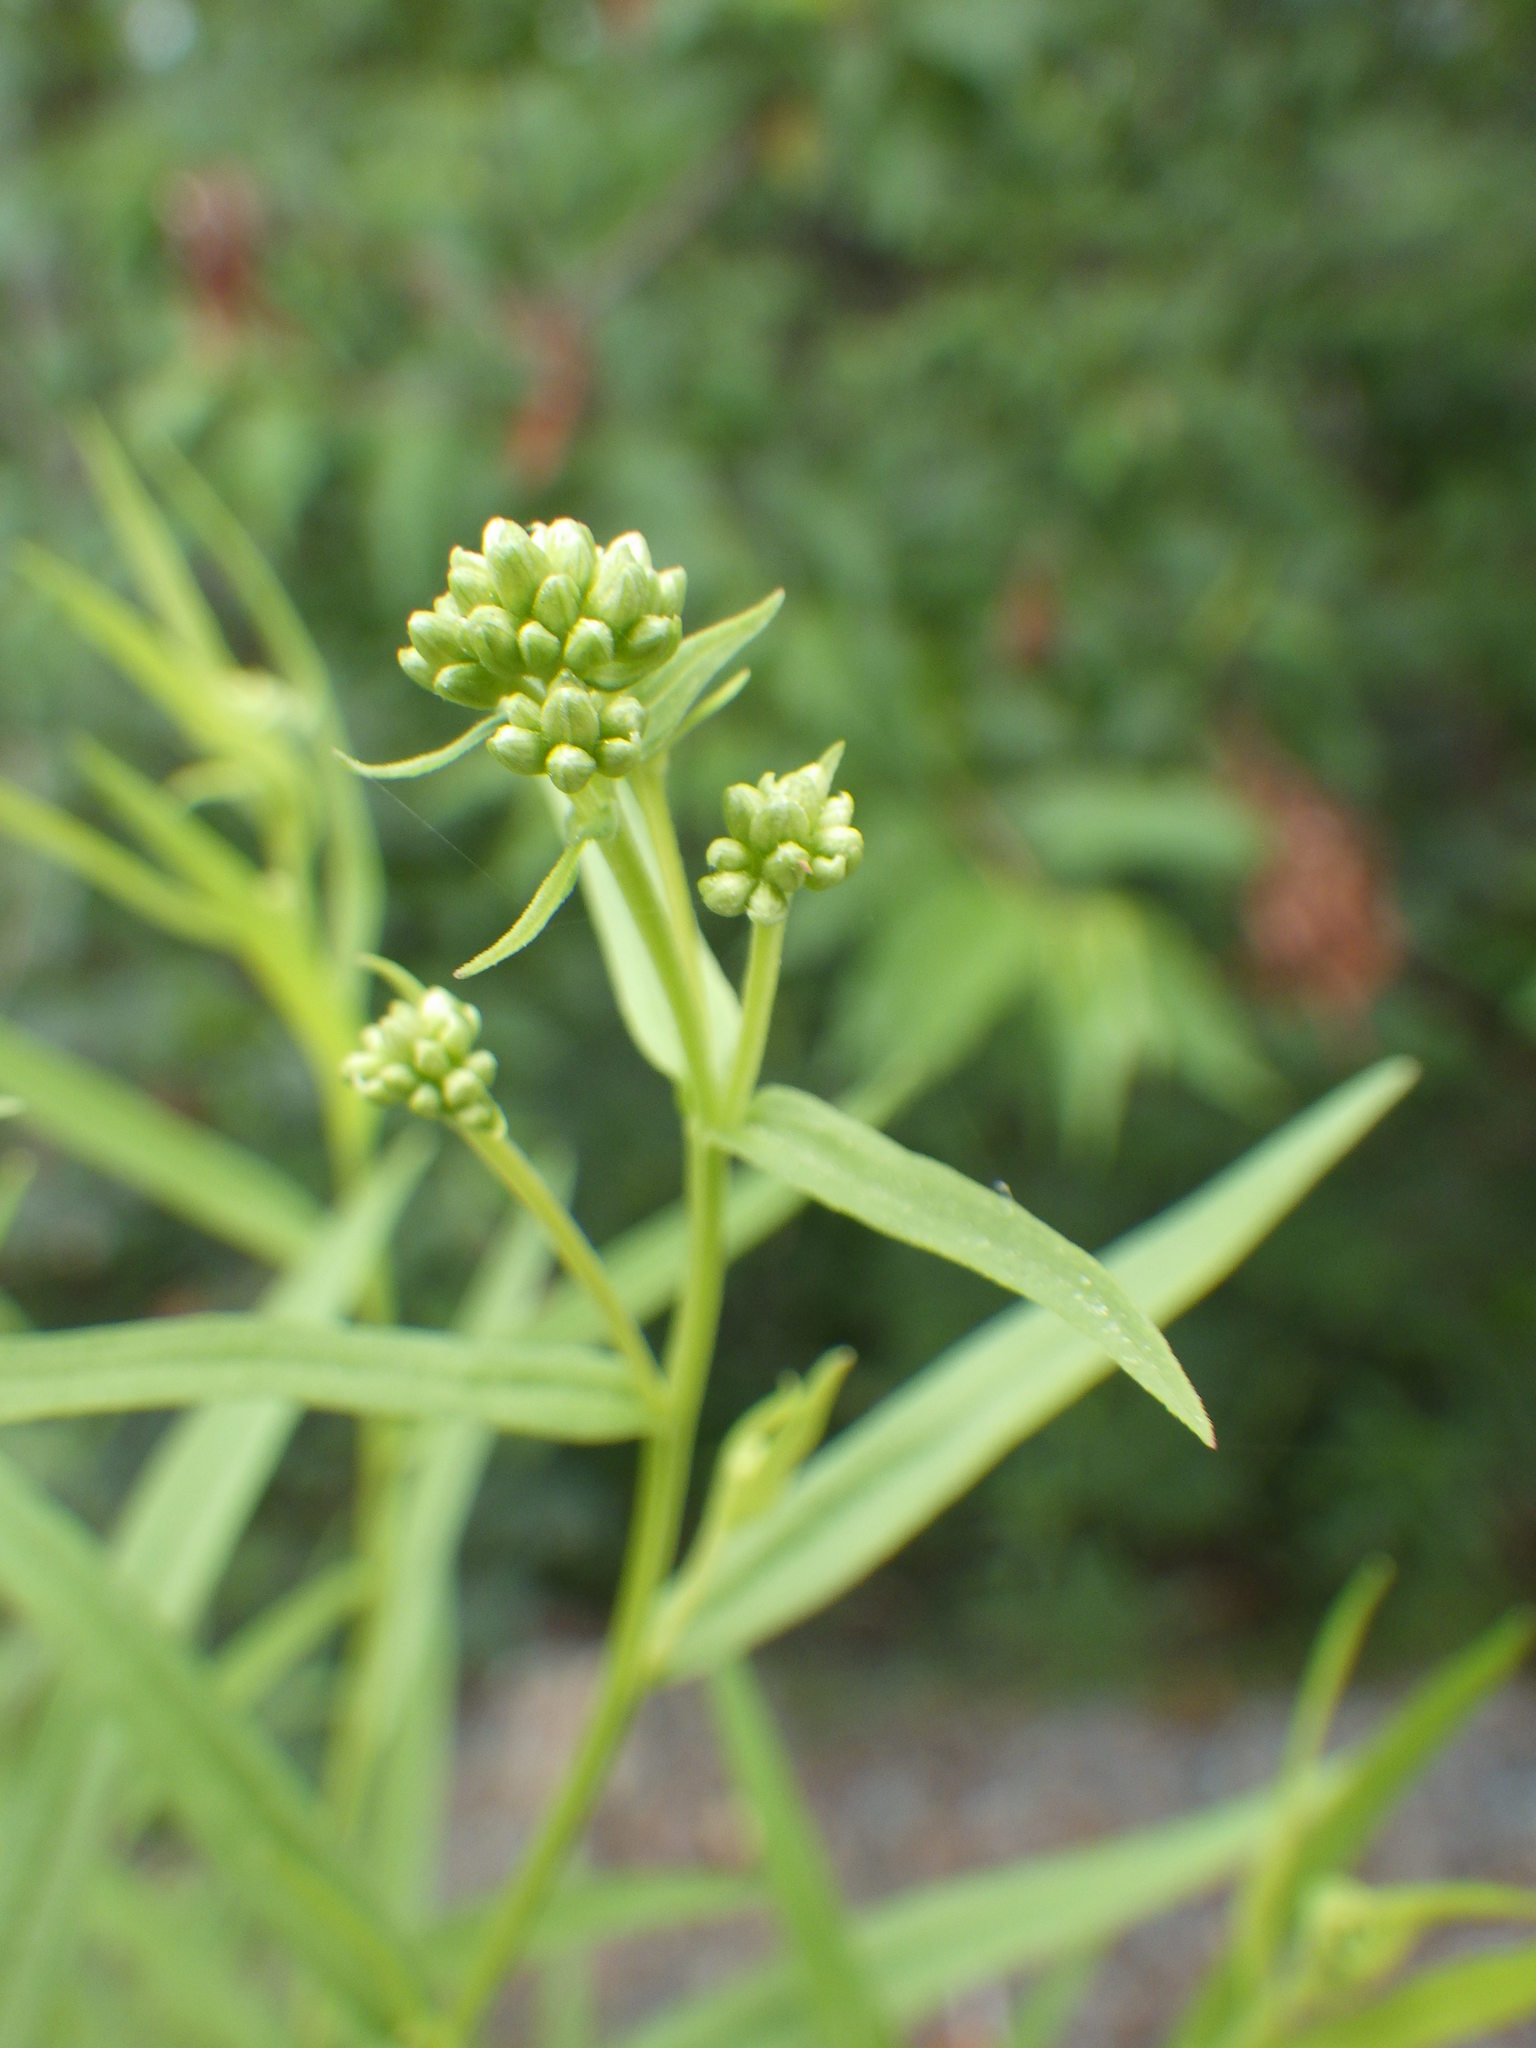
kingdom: Plantae
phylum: Tracheophyta
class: Magnoliopsida
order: Asterales
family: Asteraceae
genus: Euthamia
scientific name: Euthamia graminifolia
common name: Common goldentop
